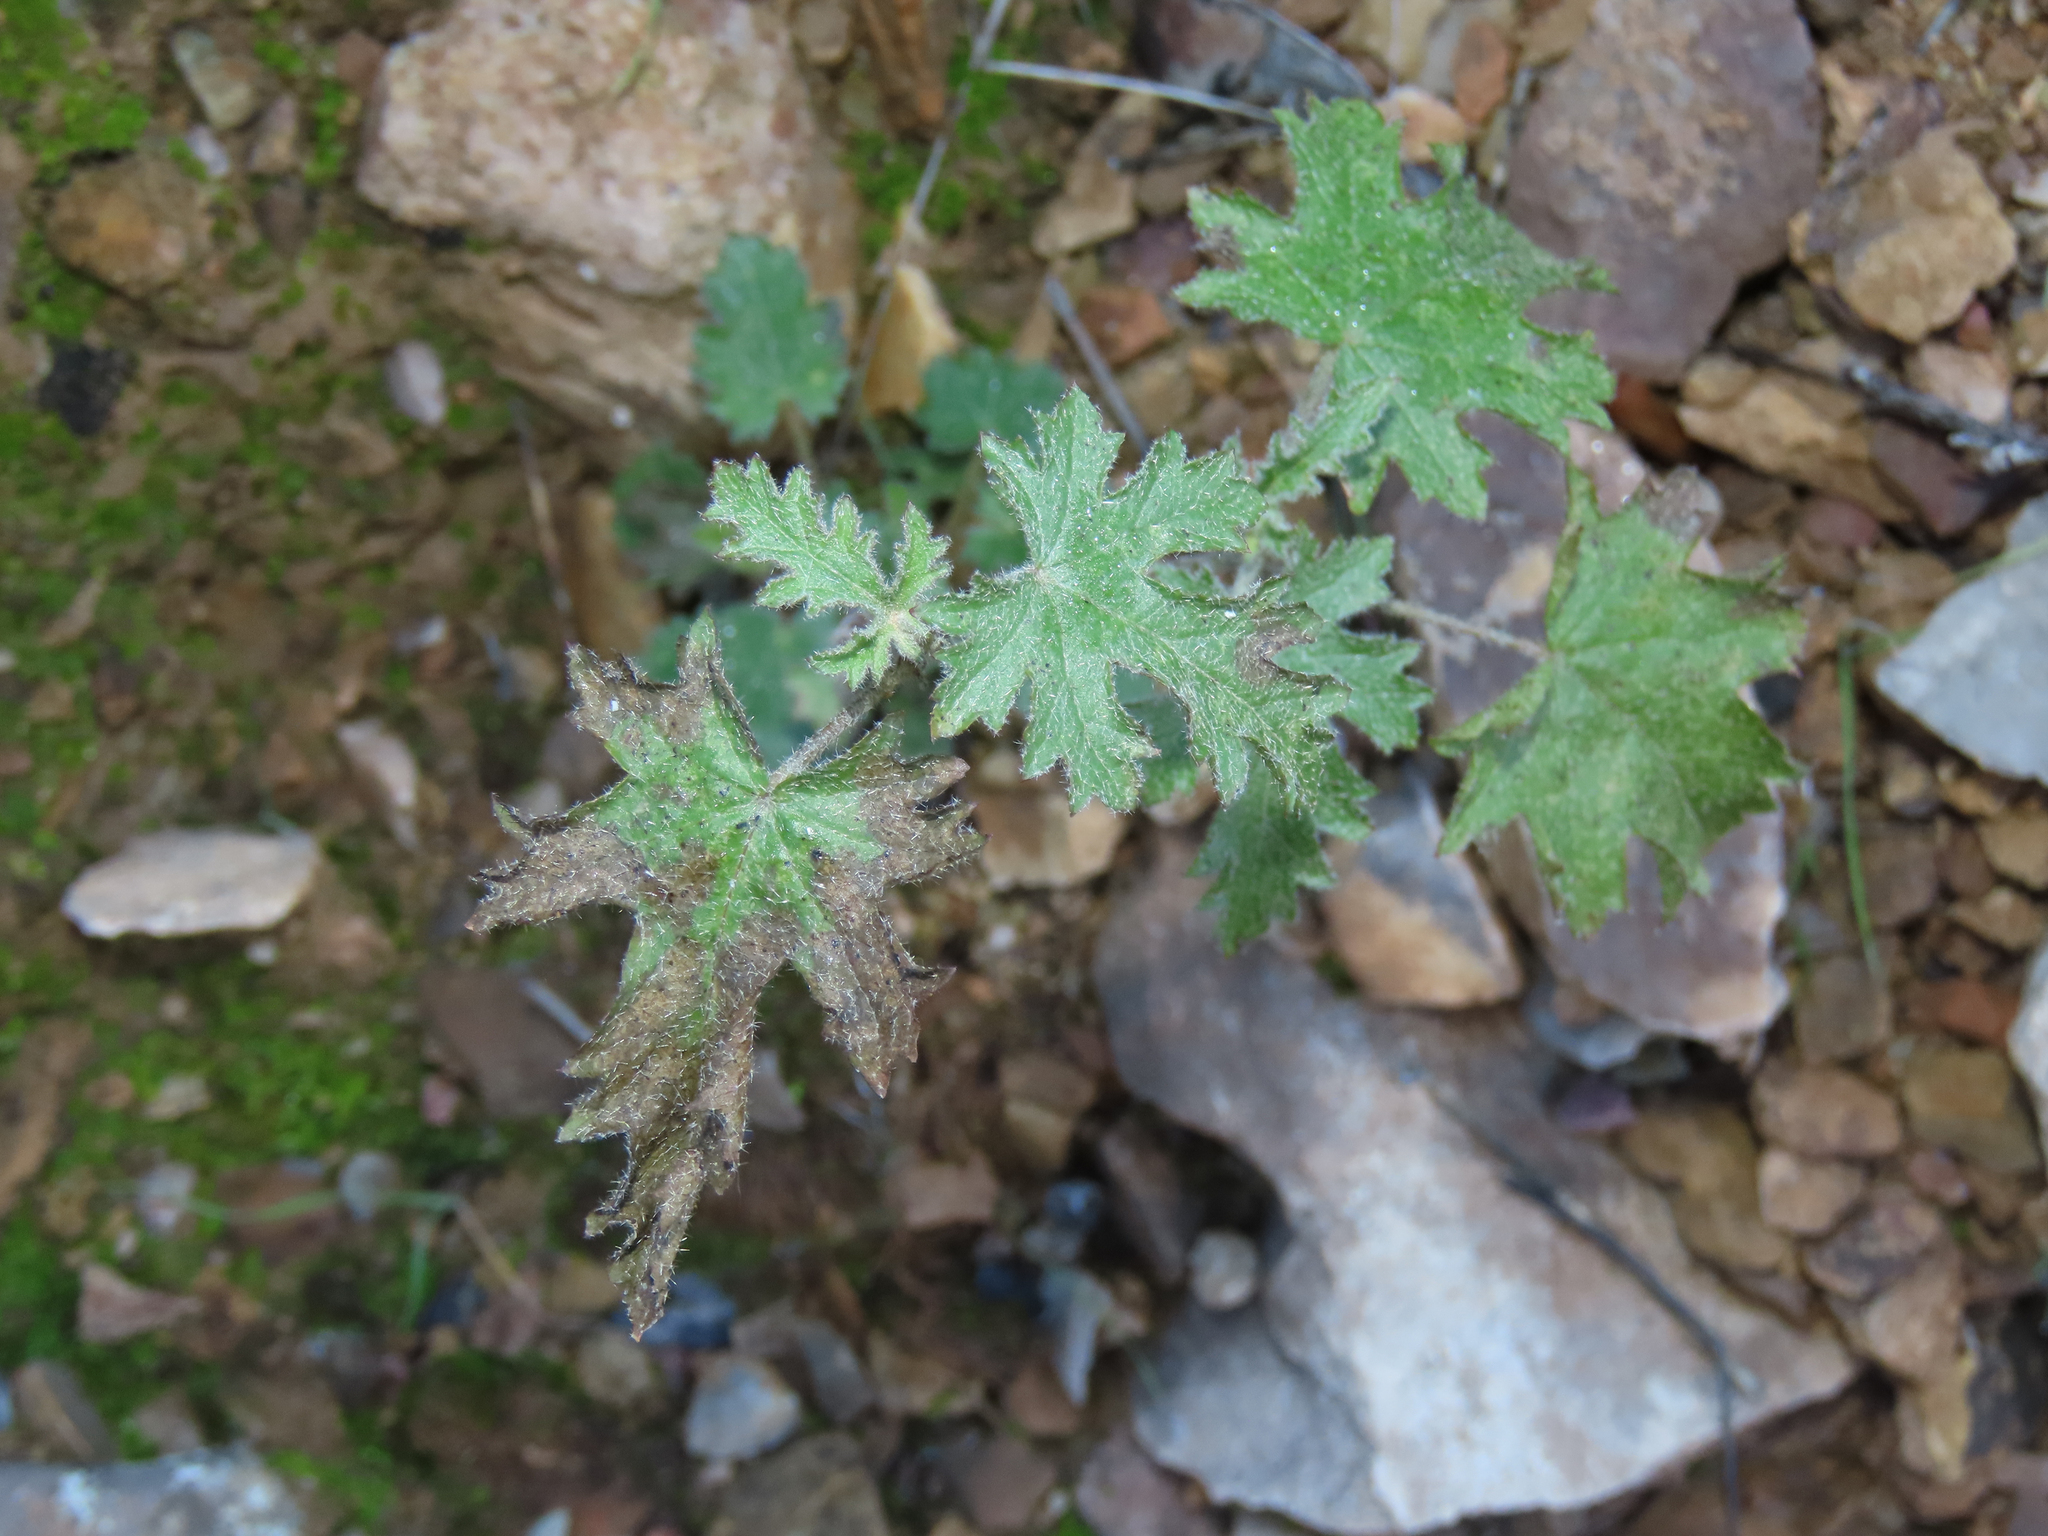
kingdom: Plantae
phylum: Tracheophyta
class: Magnoliopsida
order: Malvales
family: Malvaceae
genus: Sphaeralcea
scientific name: Sphaeralcea rusbyi
